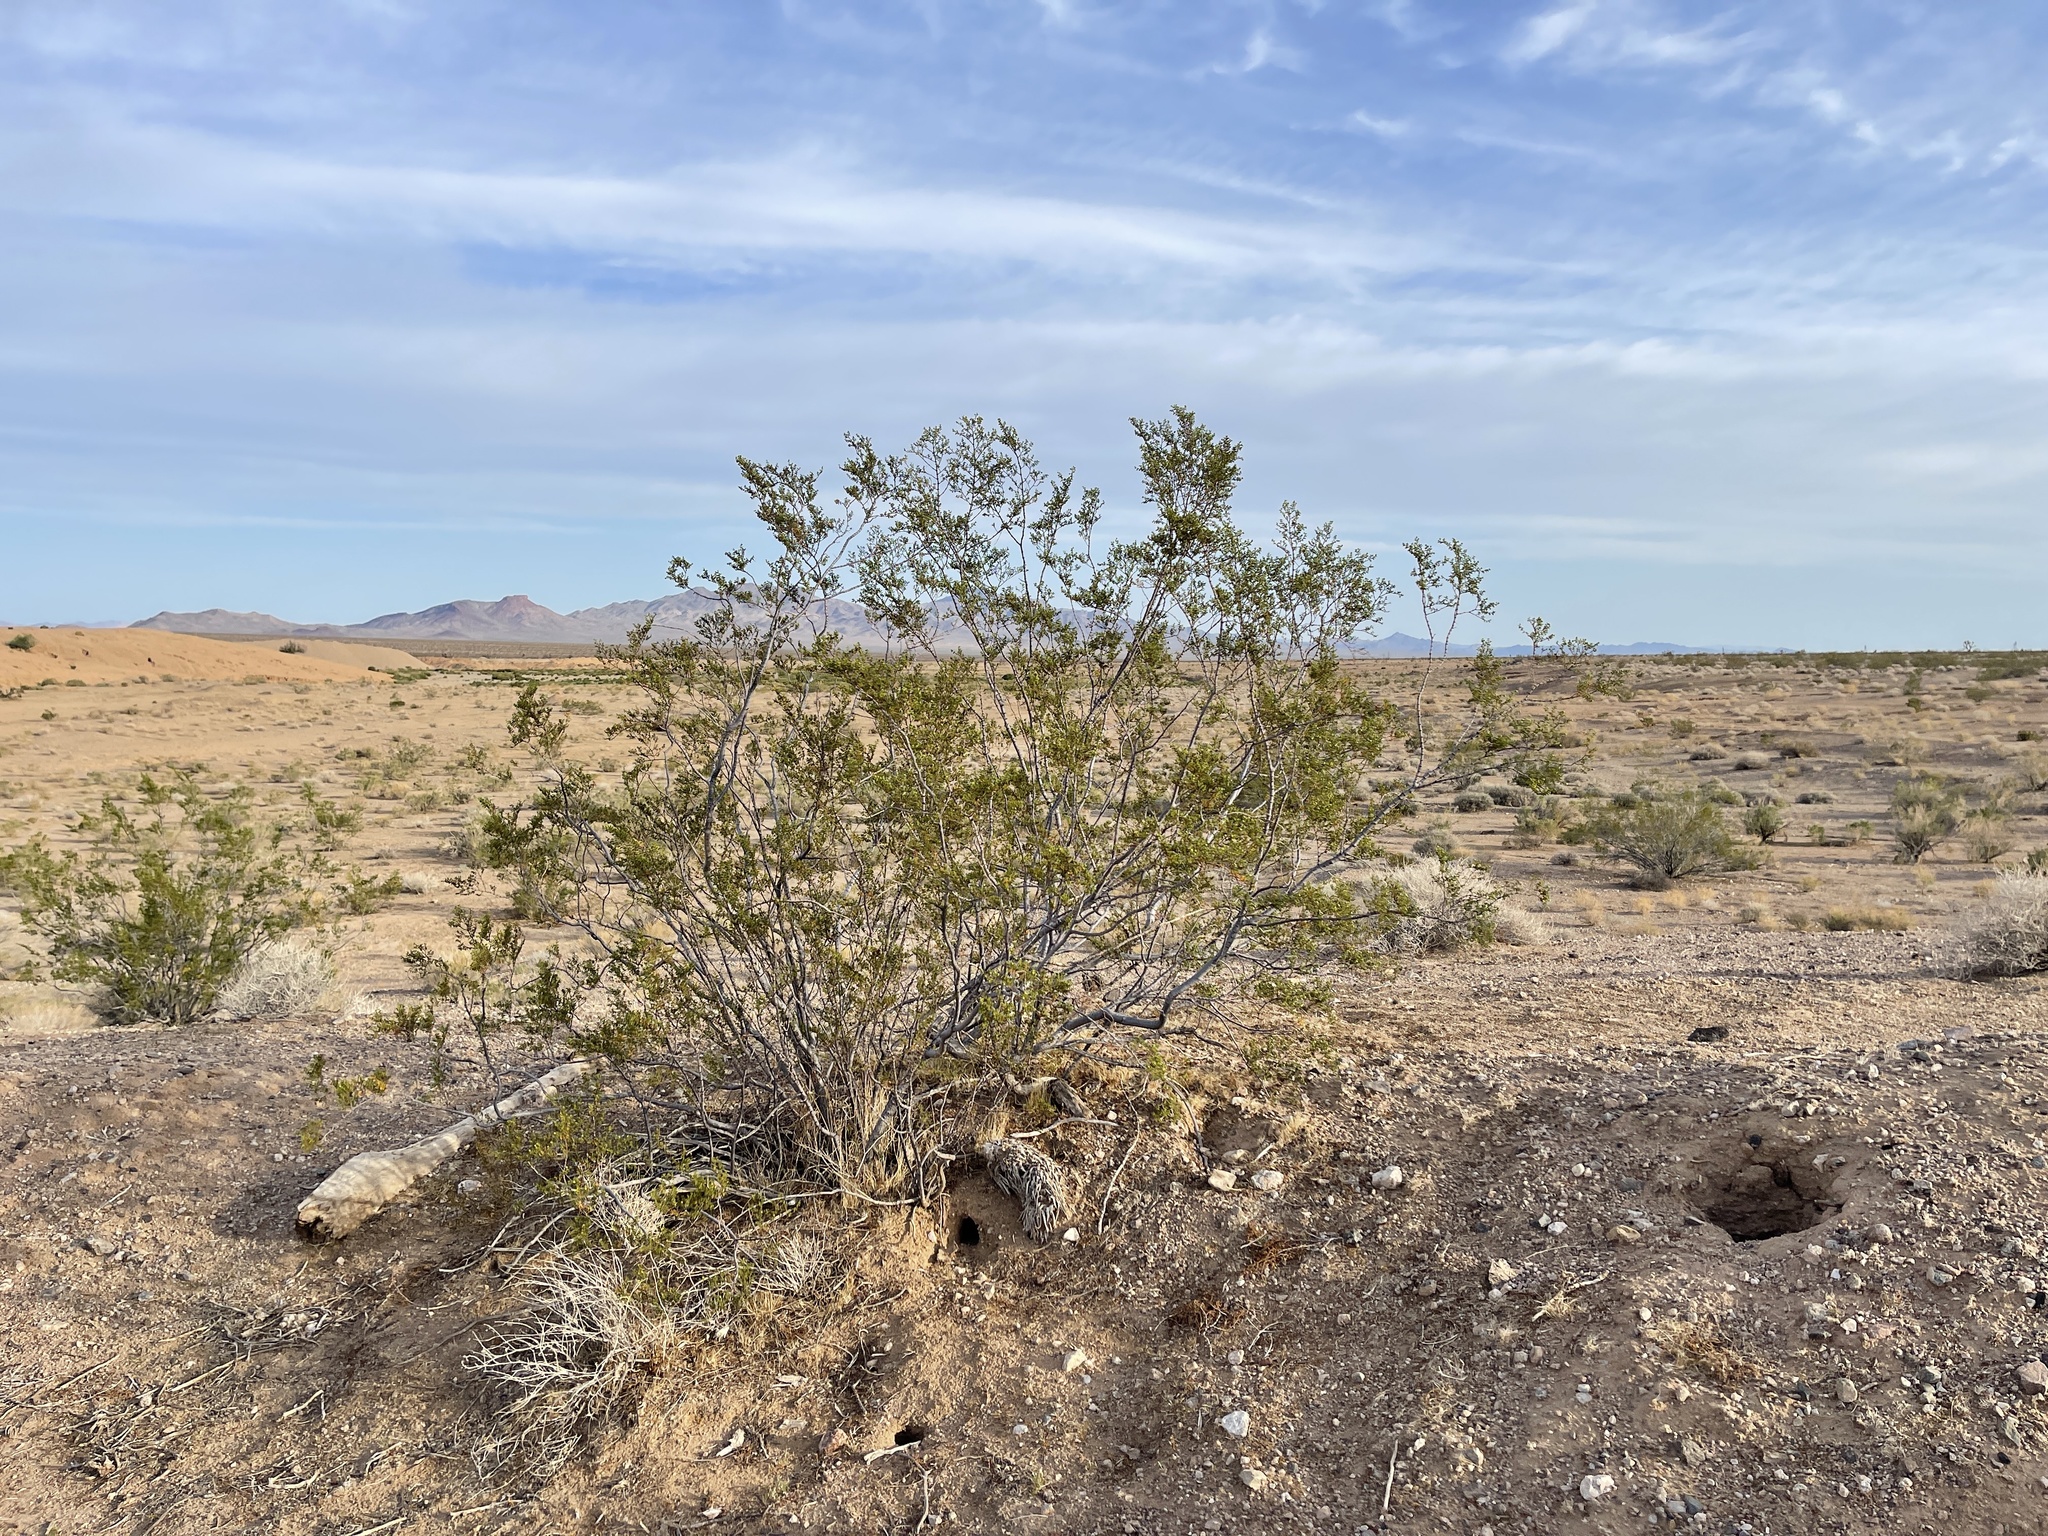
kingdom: Plantae
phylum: Tracheophyta
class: Magnoliopsida
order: Zygophyllales
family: Zygophyllaceae
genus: Larrea
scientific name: Larrea tridentata
